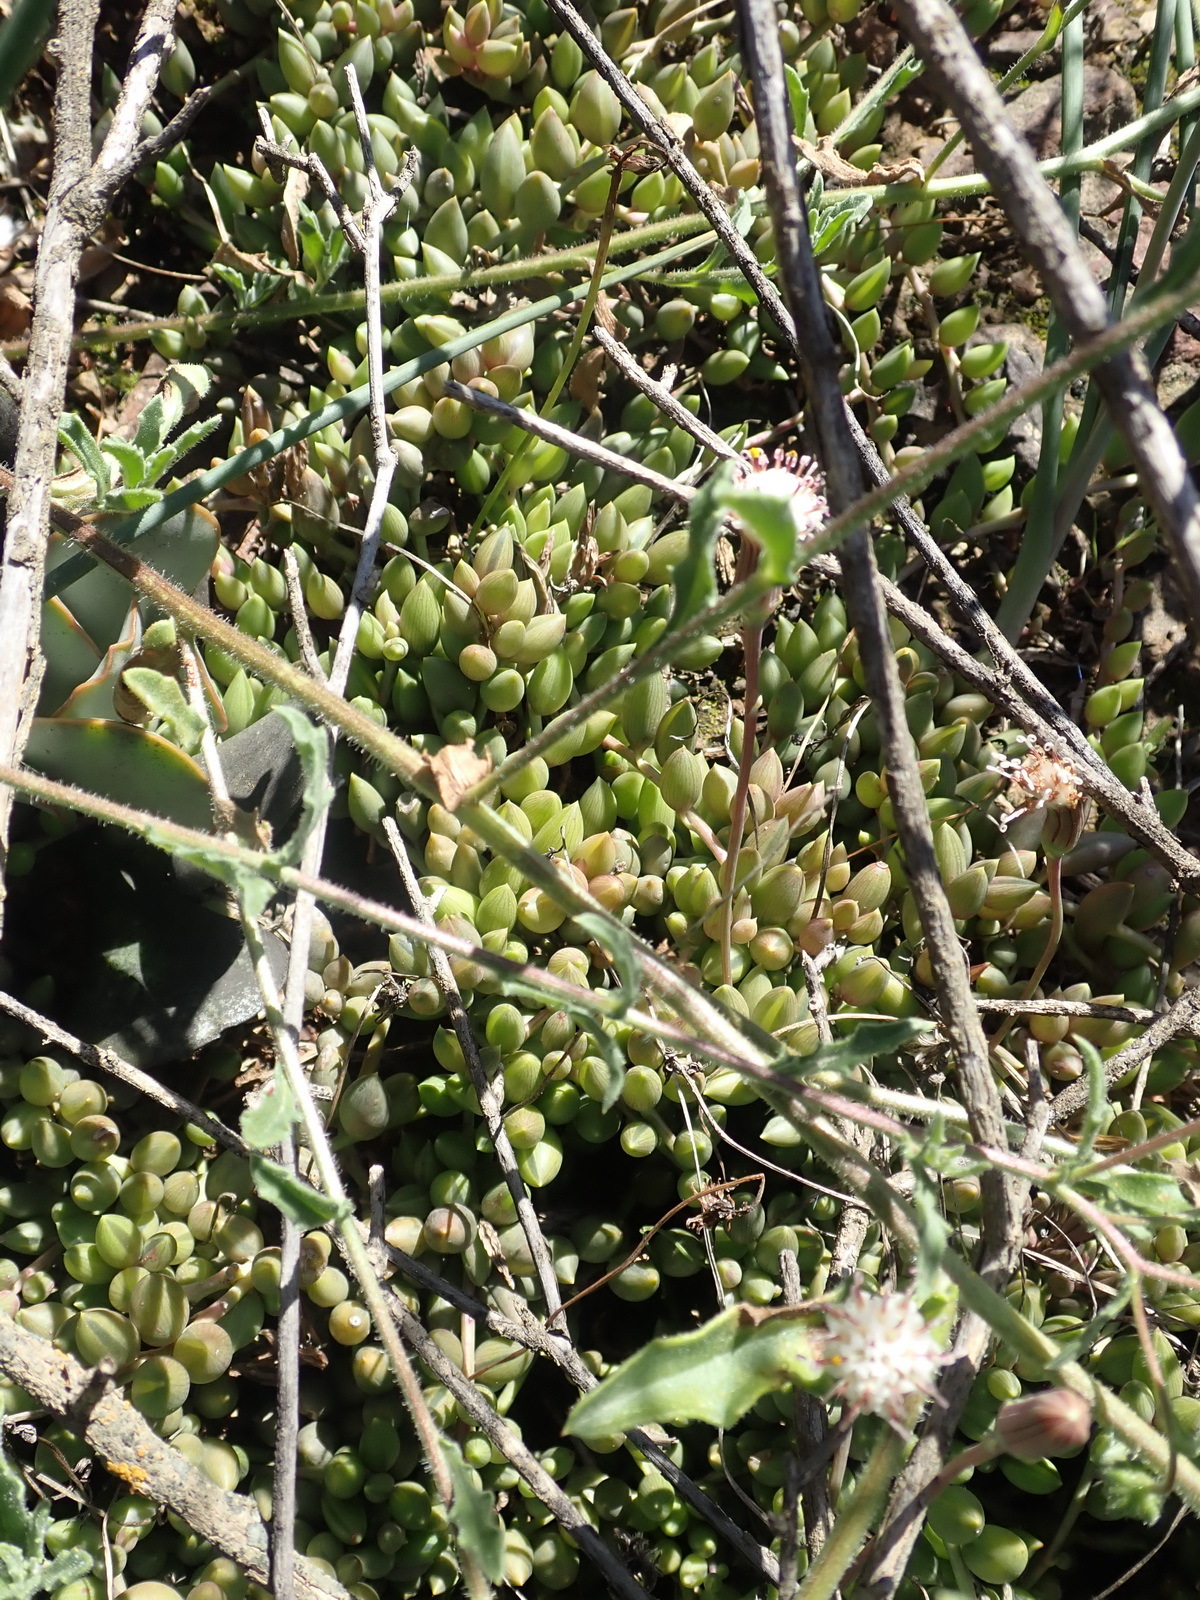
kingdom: Plantae
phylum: Tracheophyta
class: Magnoliopsida
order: Asterales
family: Asteraceae
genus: Curio
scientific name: Curio radicans
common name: Creeping-berry
